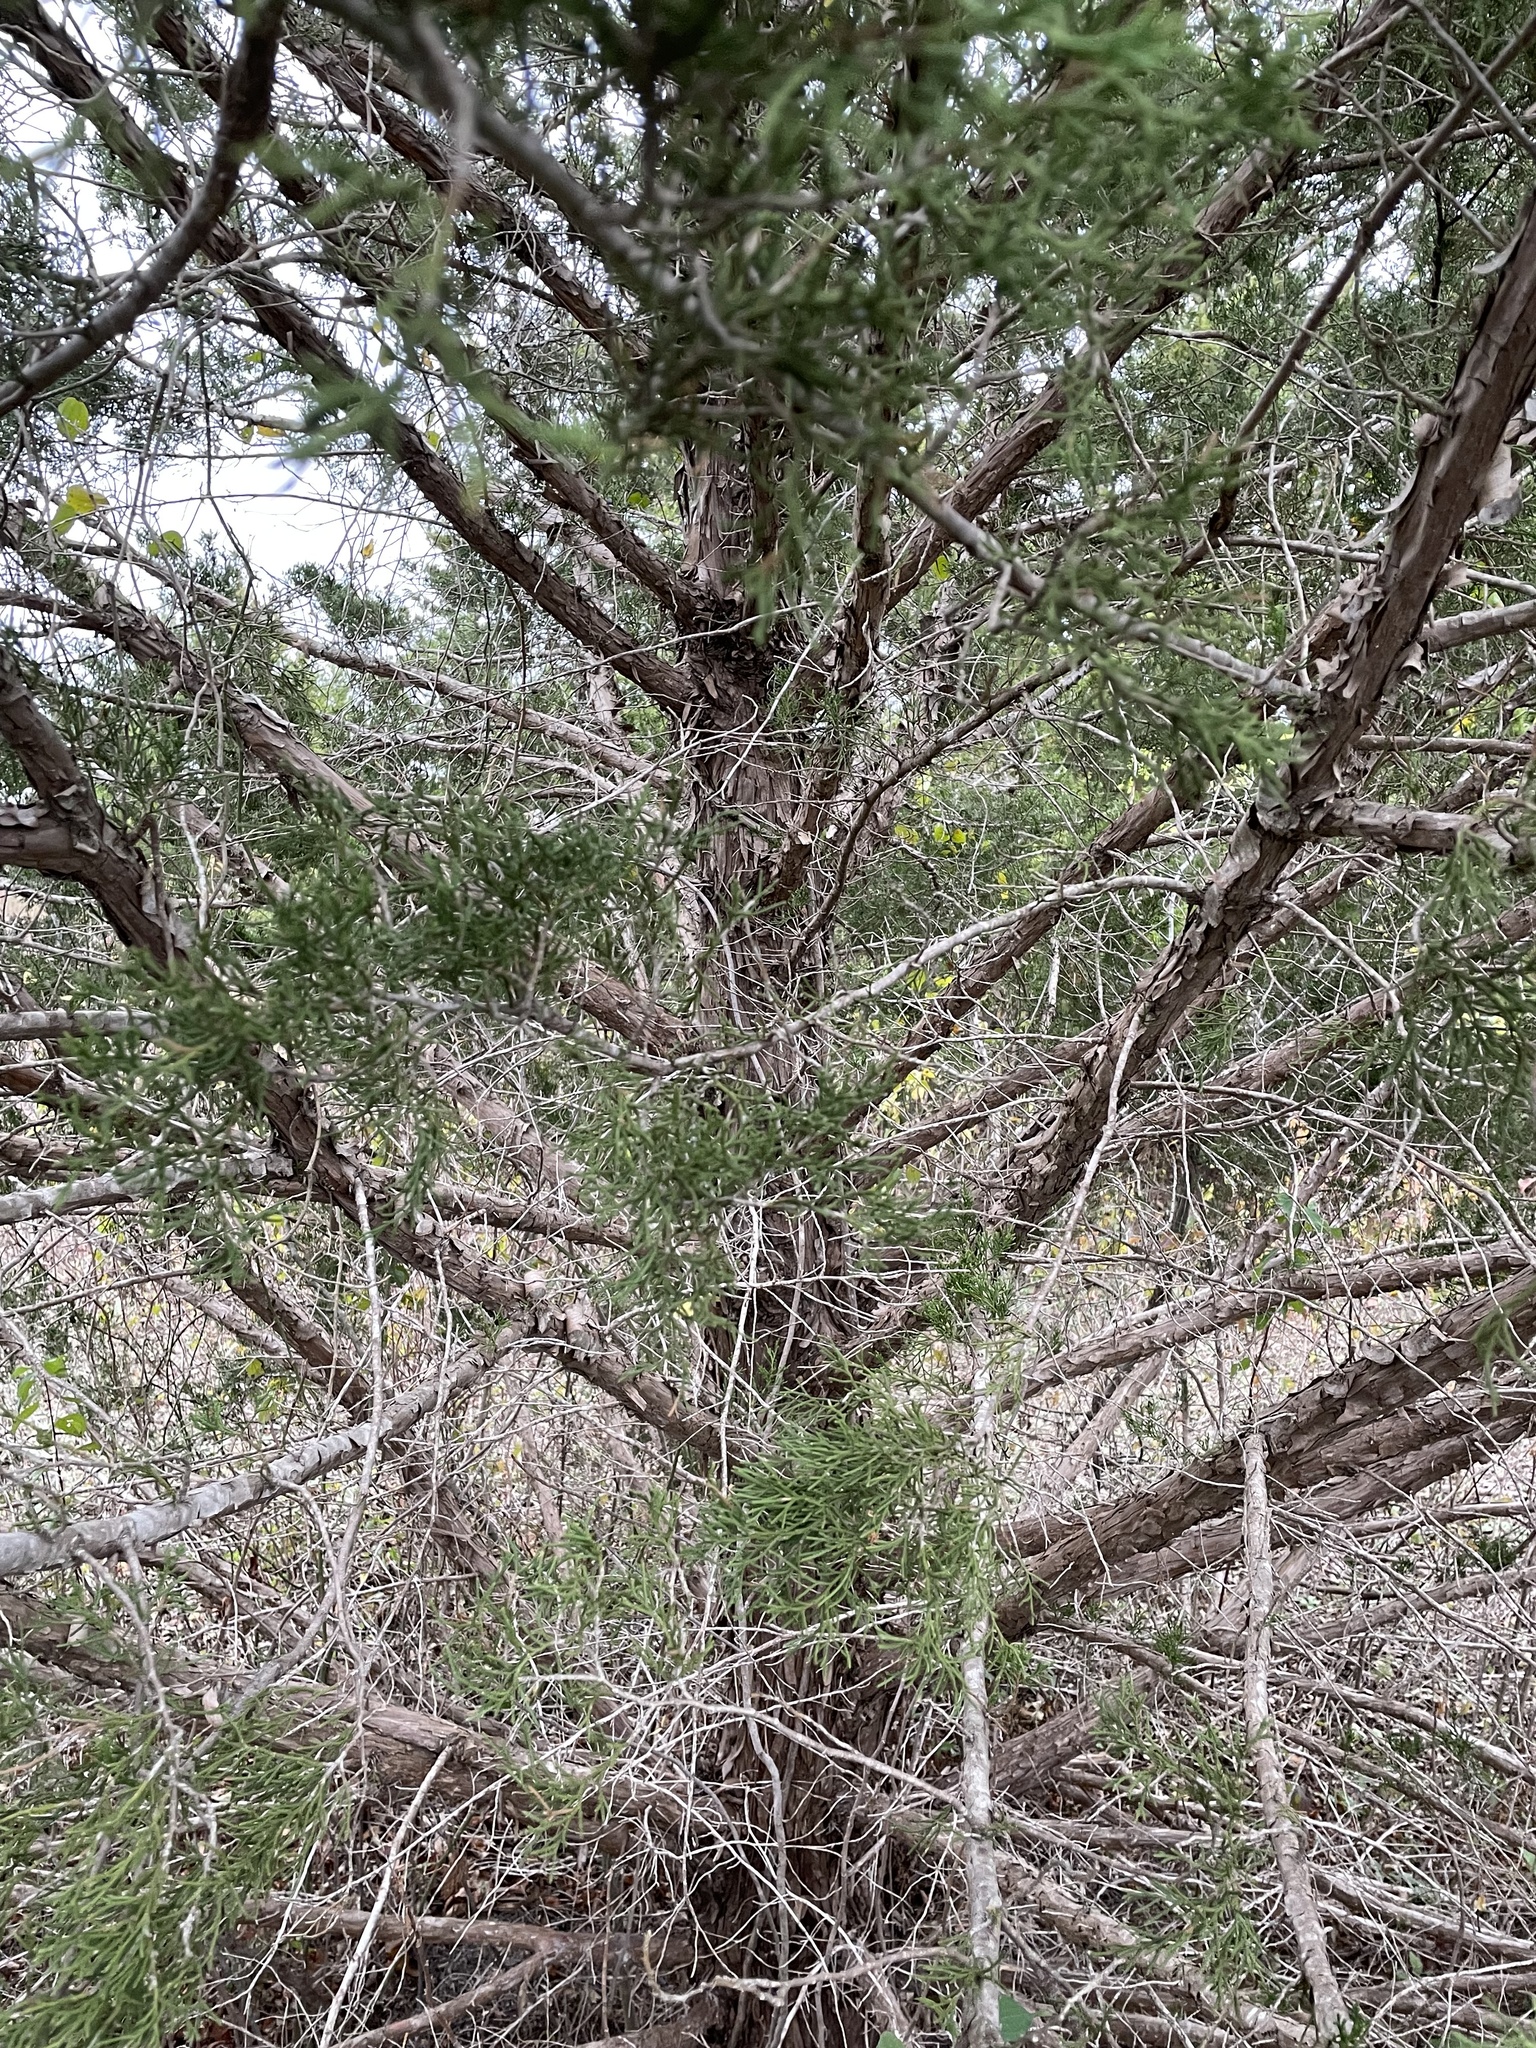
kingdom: Plantae
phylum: Tracheophyta
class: Pinopsida
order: Pinales
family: Cupressaceae
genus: Juniperus
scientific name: Juniperus virginiana
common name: Red juniper
